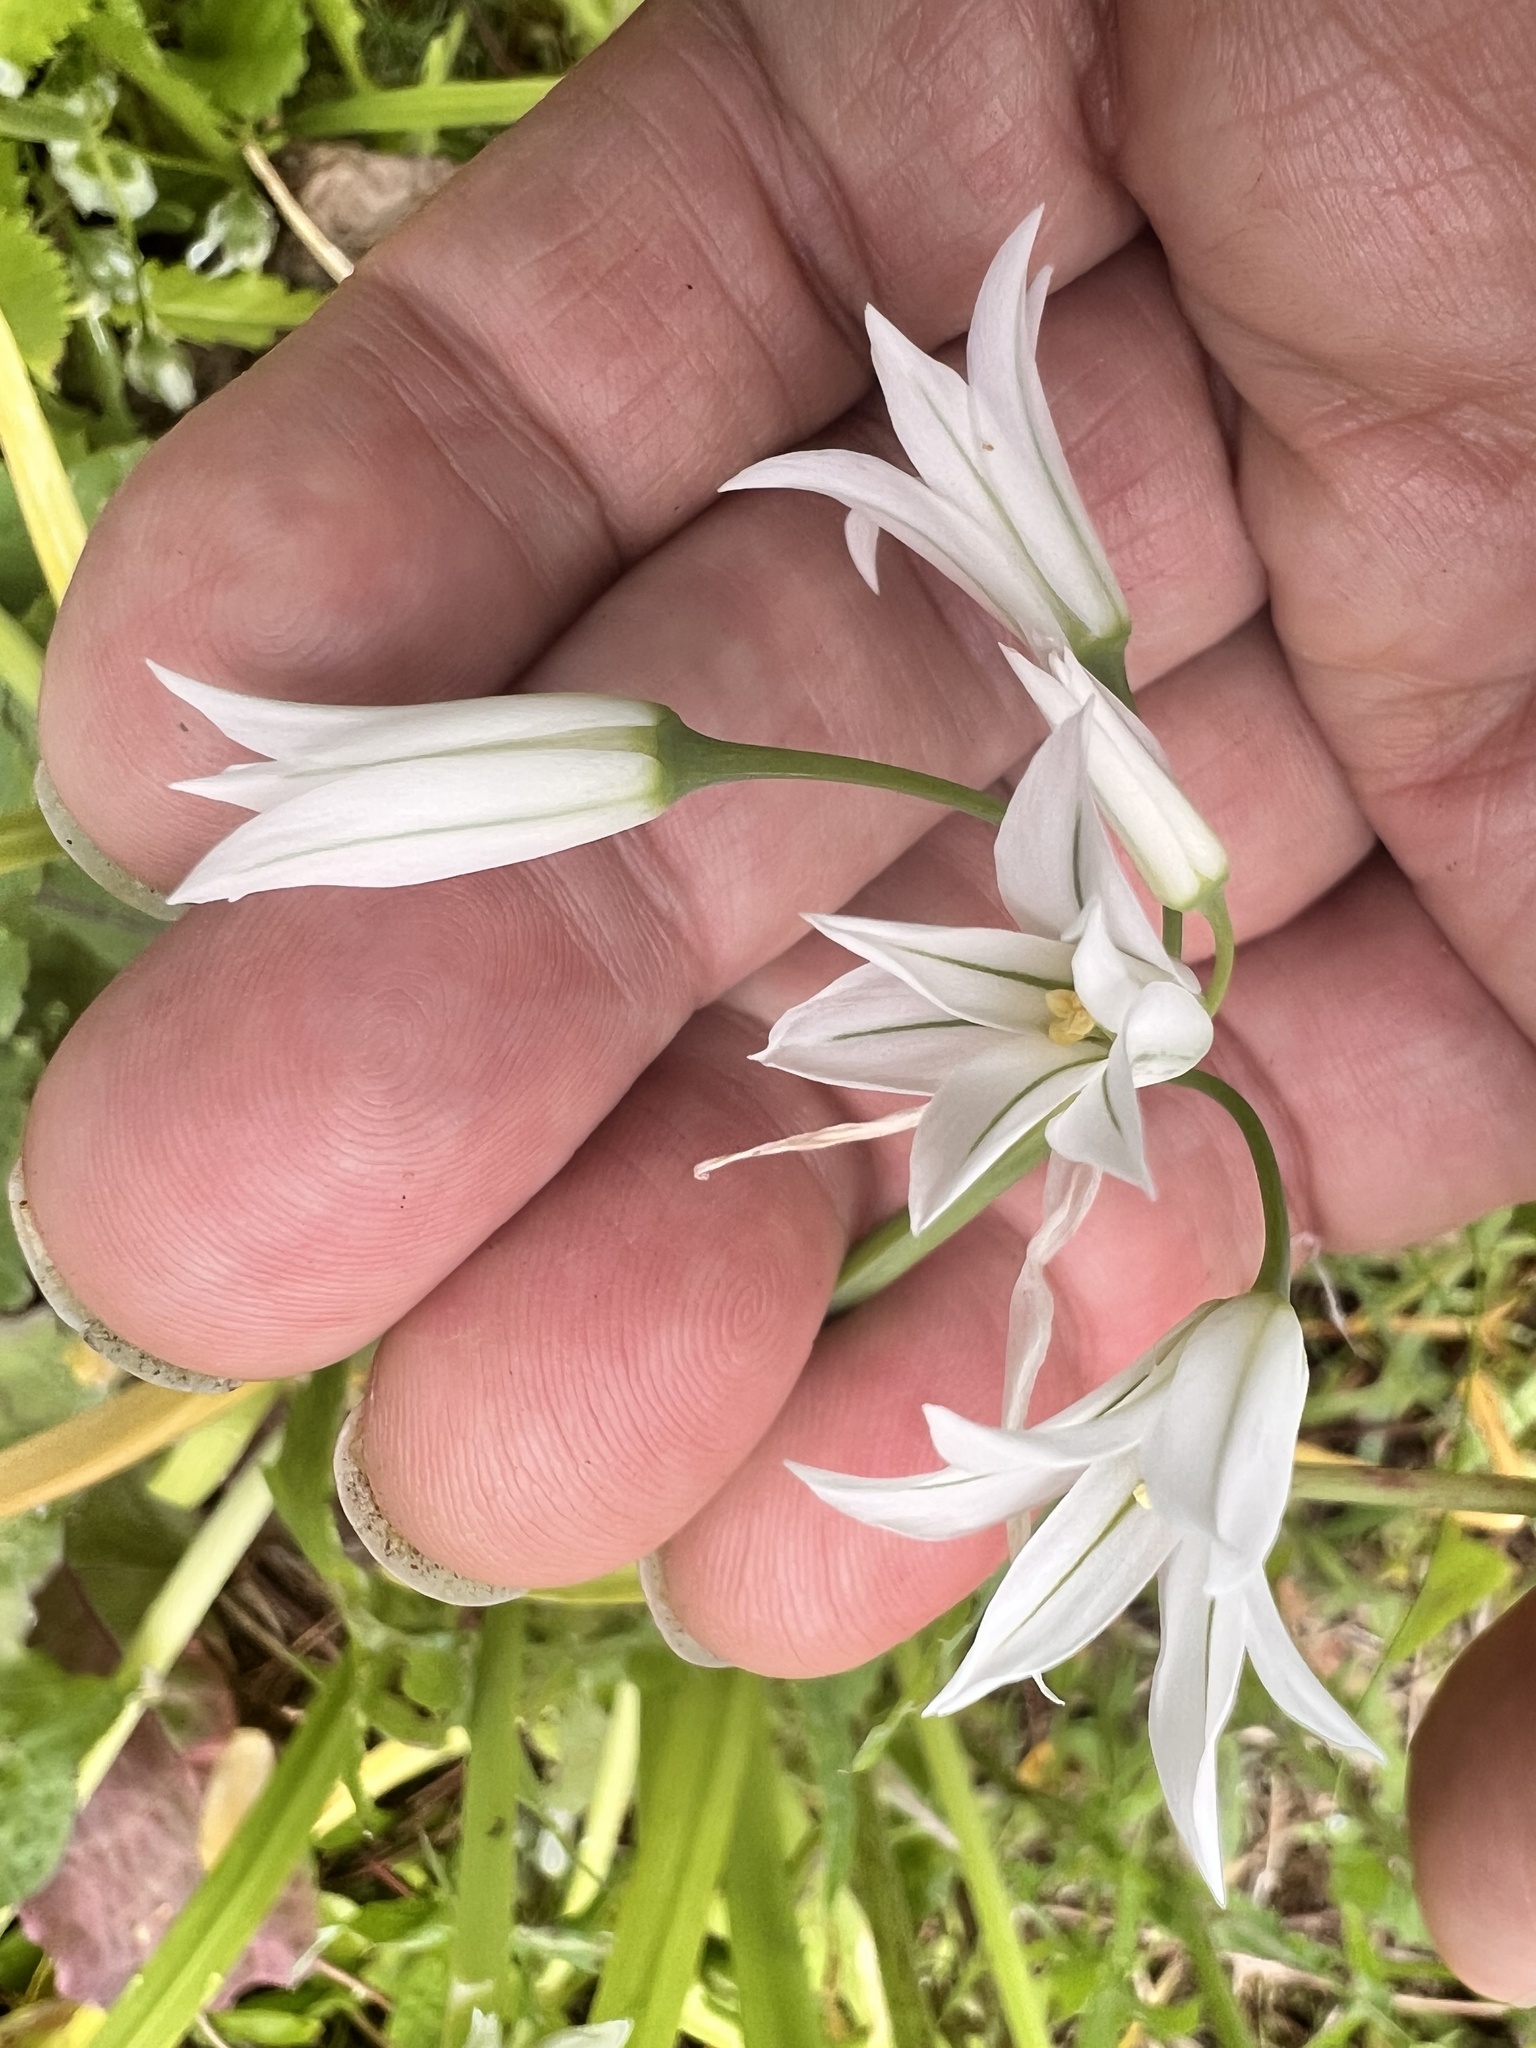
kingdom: Plantae
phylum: Tracheophyta
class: Liliopsida
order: Asparagales
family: Amaryllidaceae
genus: Allium
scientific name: Allium triquetrum
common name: Three-cornered garlic
